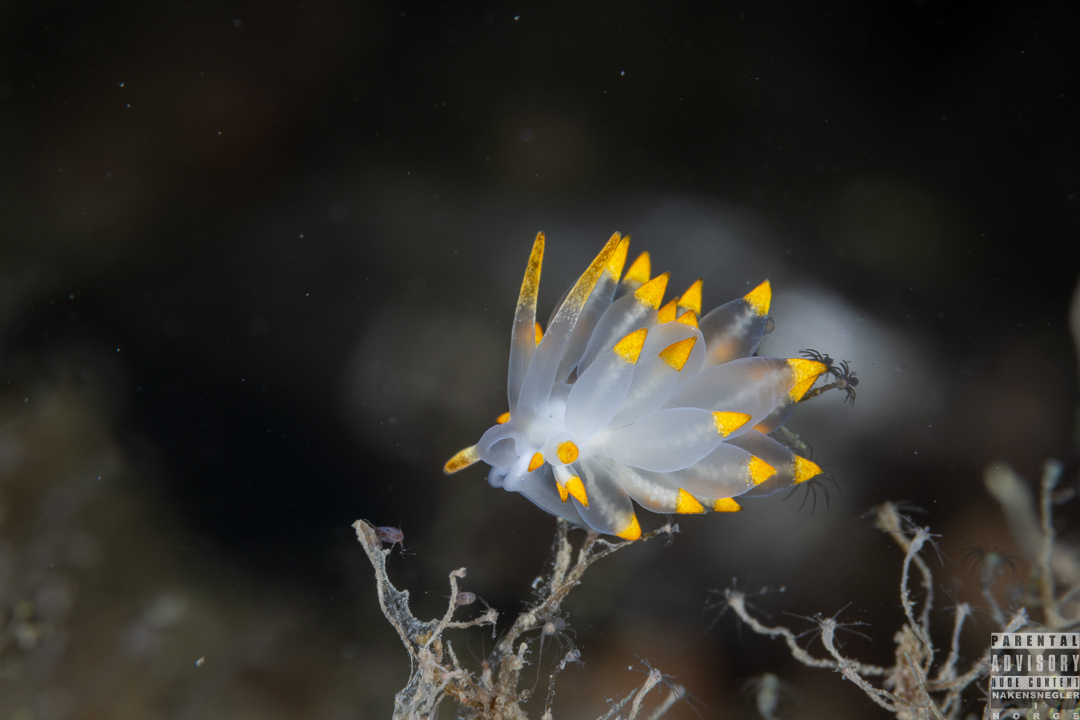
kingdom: Animalia
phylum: Mollusca
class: Gastropoda
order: Nudibranchia
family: Eubranchidae
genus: Amphorina
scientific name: Amphorina farrani
